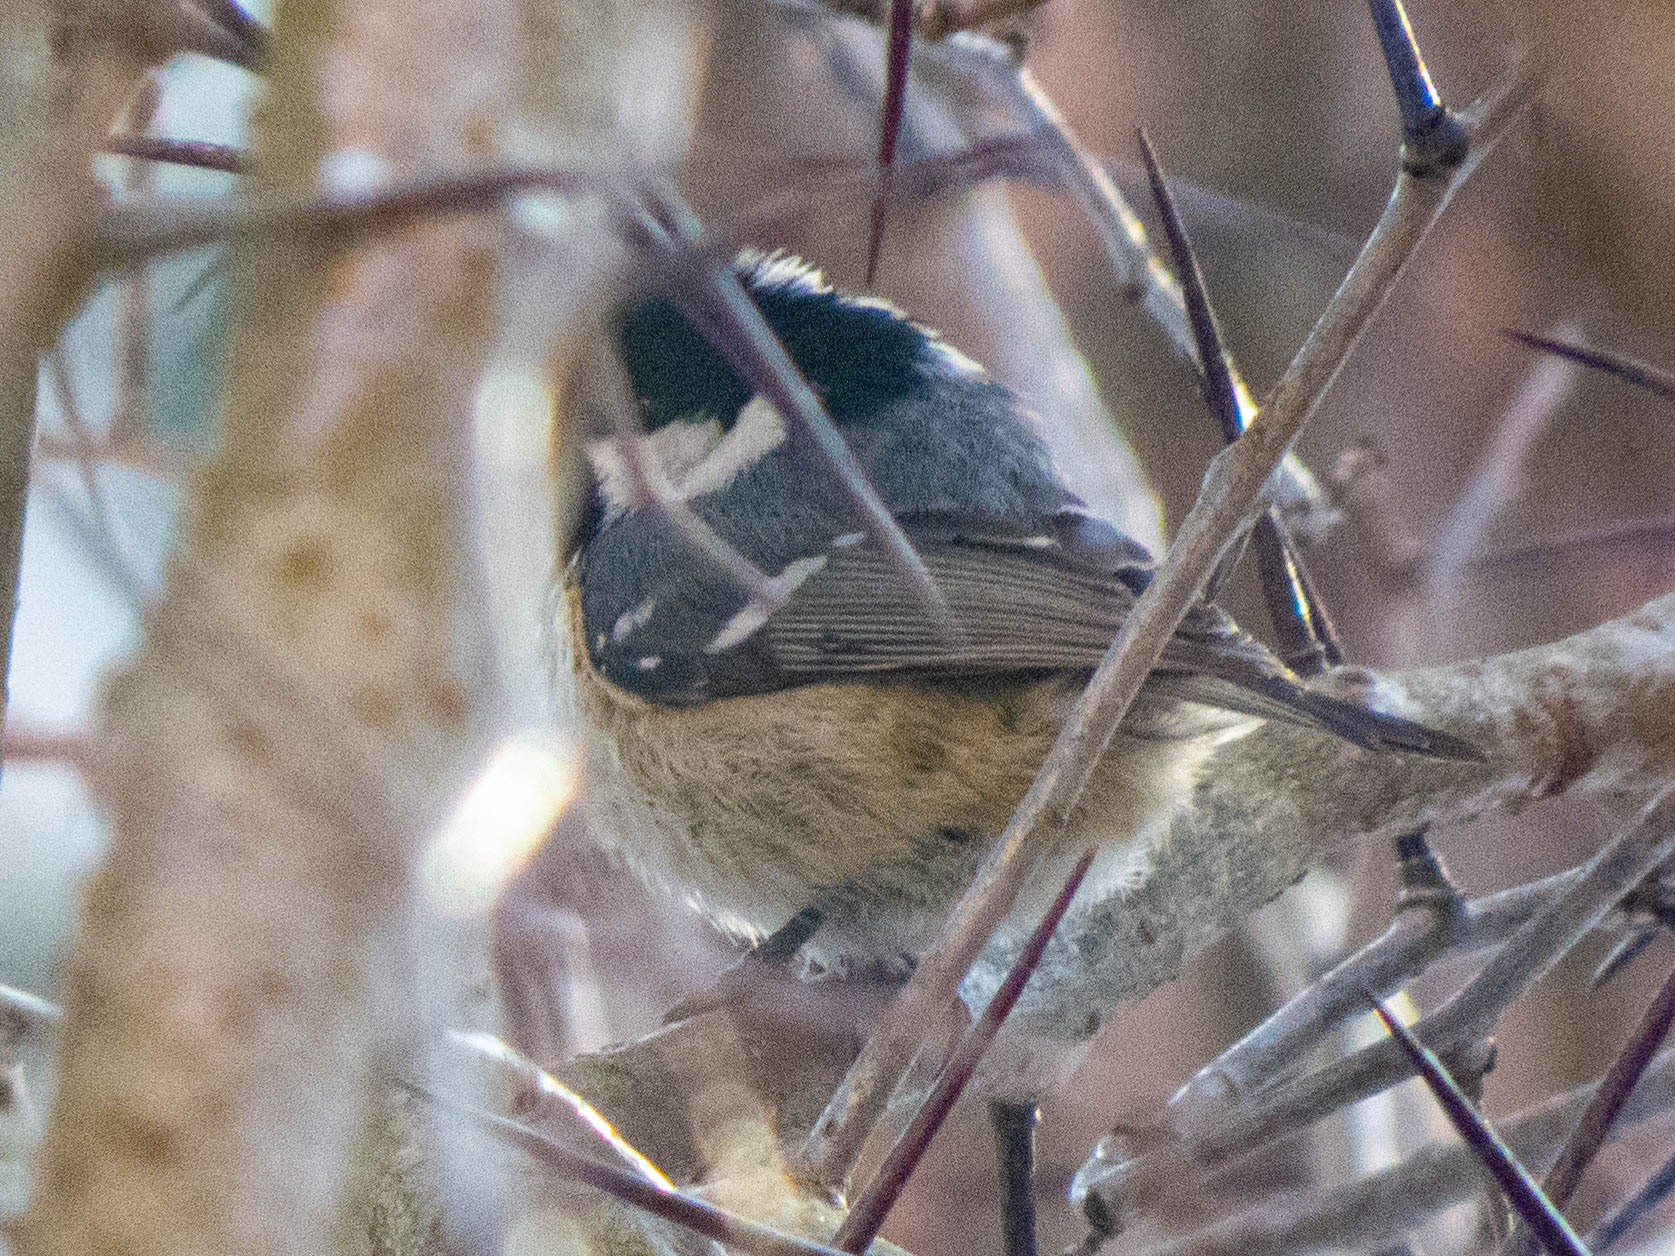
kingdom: Animalia
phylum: Chordata
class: Aves
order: Passeriformes
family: Paridae
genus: Periparus
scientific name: Periparus ater
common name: Coal tit
